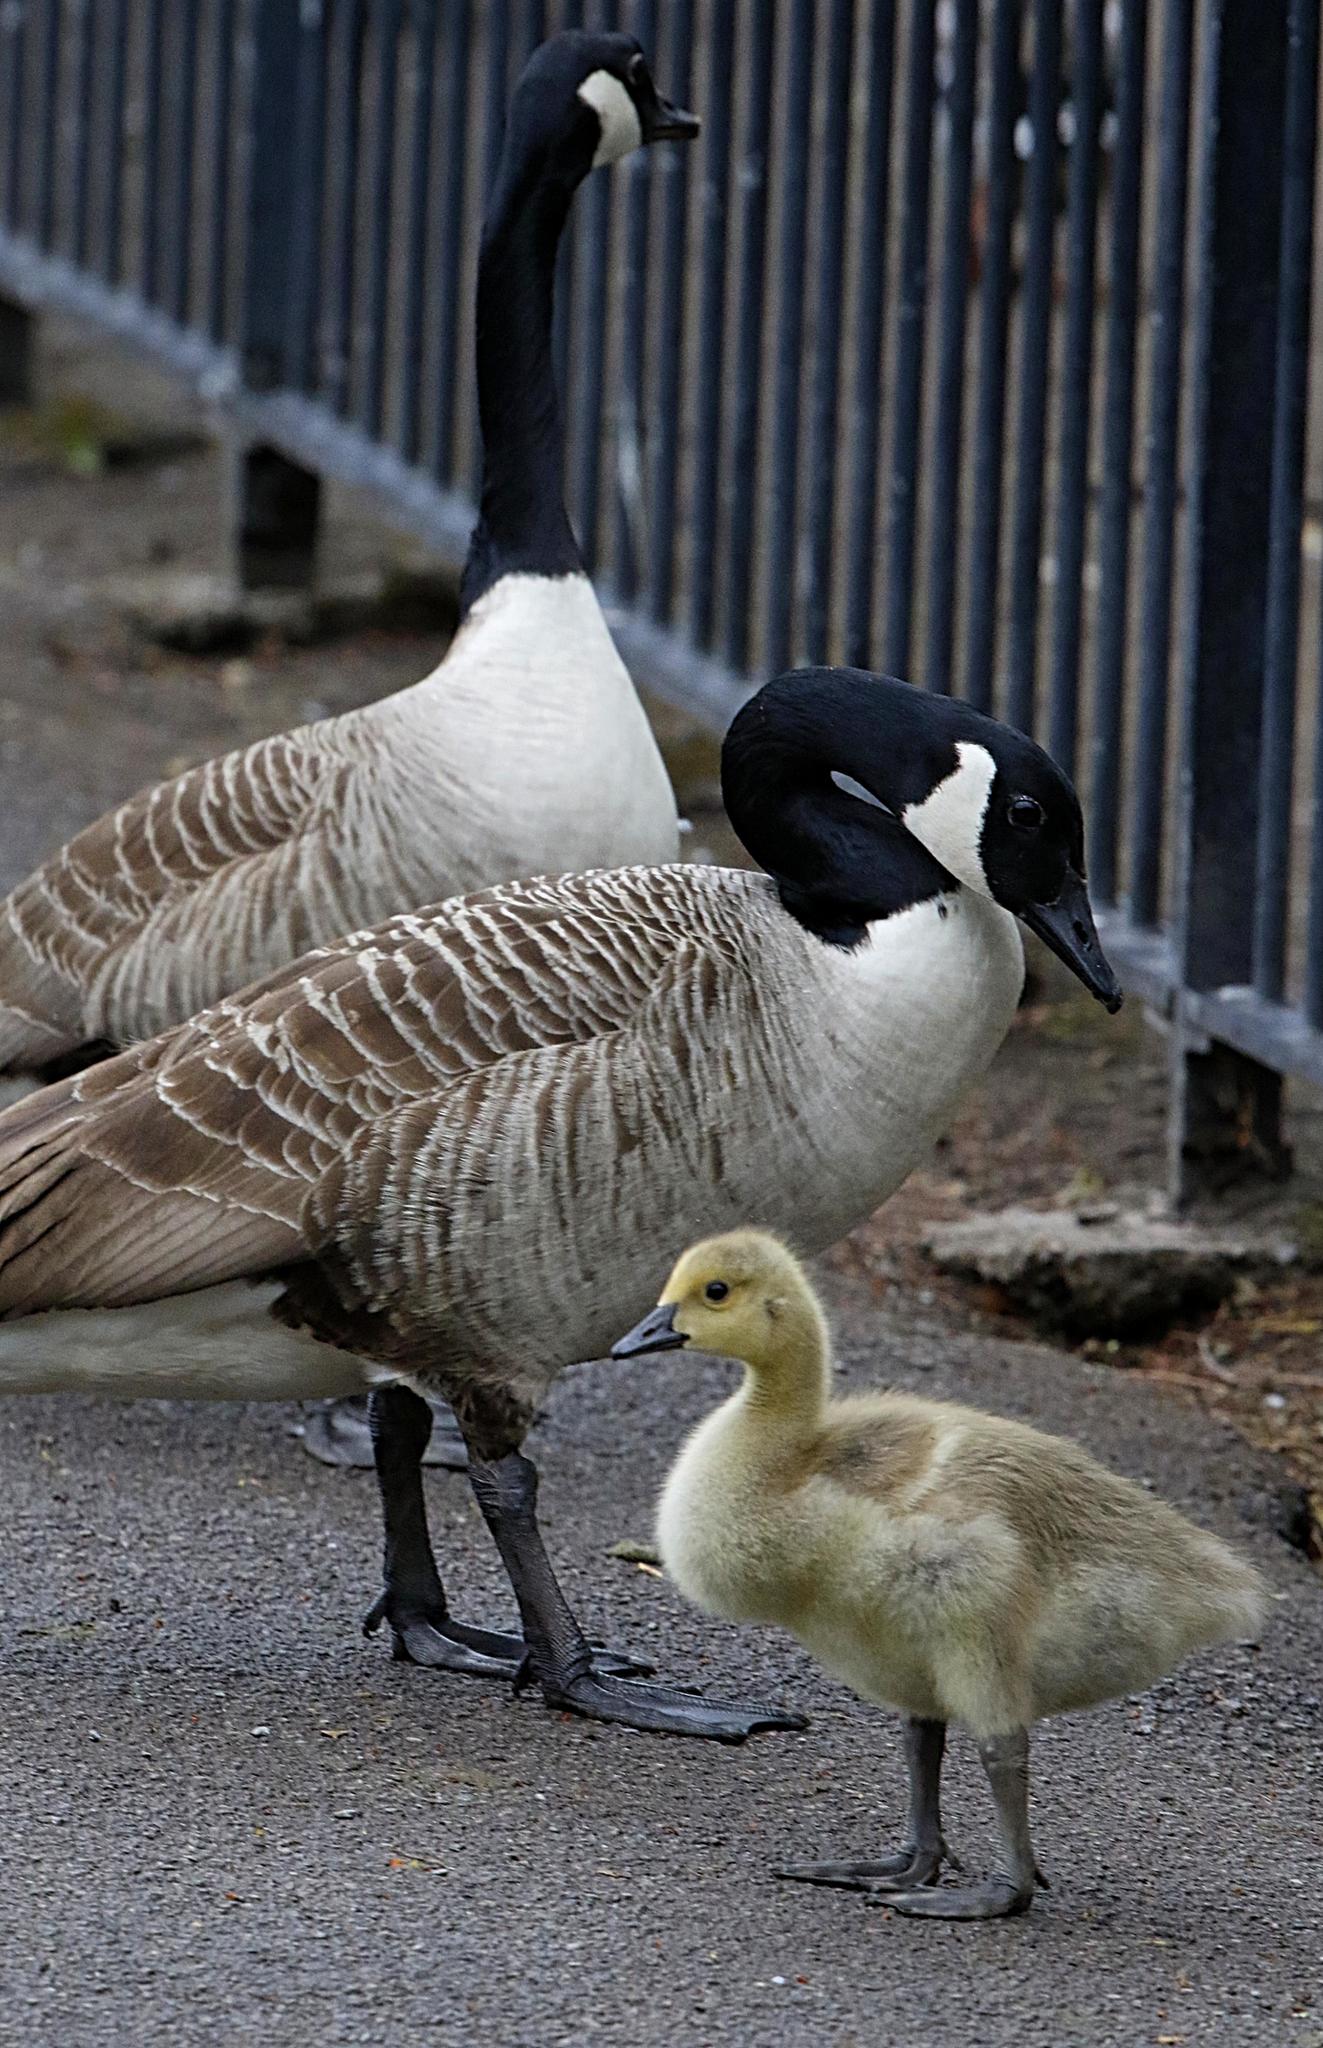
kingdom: Animalia
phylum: Chordata
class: Aves
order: Anseriformes
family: Anatidae
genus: Branta
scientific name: Branta canadensis
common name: Canada goose
